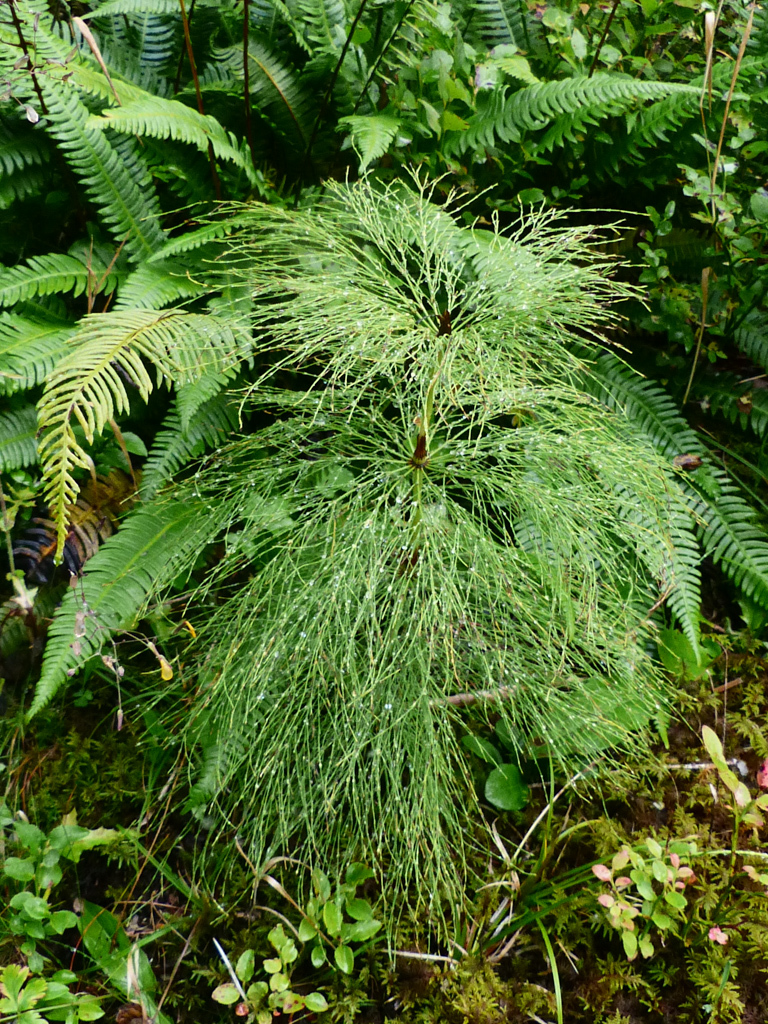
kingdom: Plantae
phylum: Tracheophyta
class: Polypodiopsida
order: Equisetales
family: Equisetaceae
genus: Equisetum
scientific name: Equisetum sylvaticum
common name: Wood horsetail
